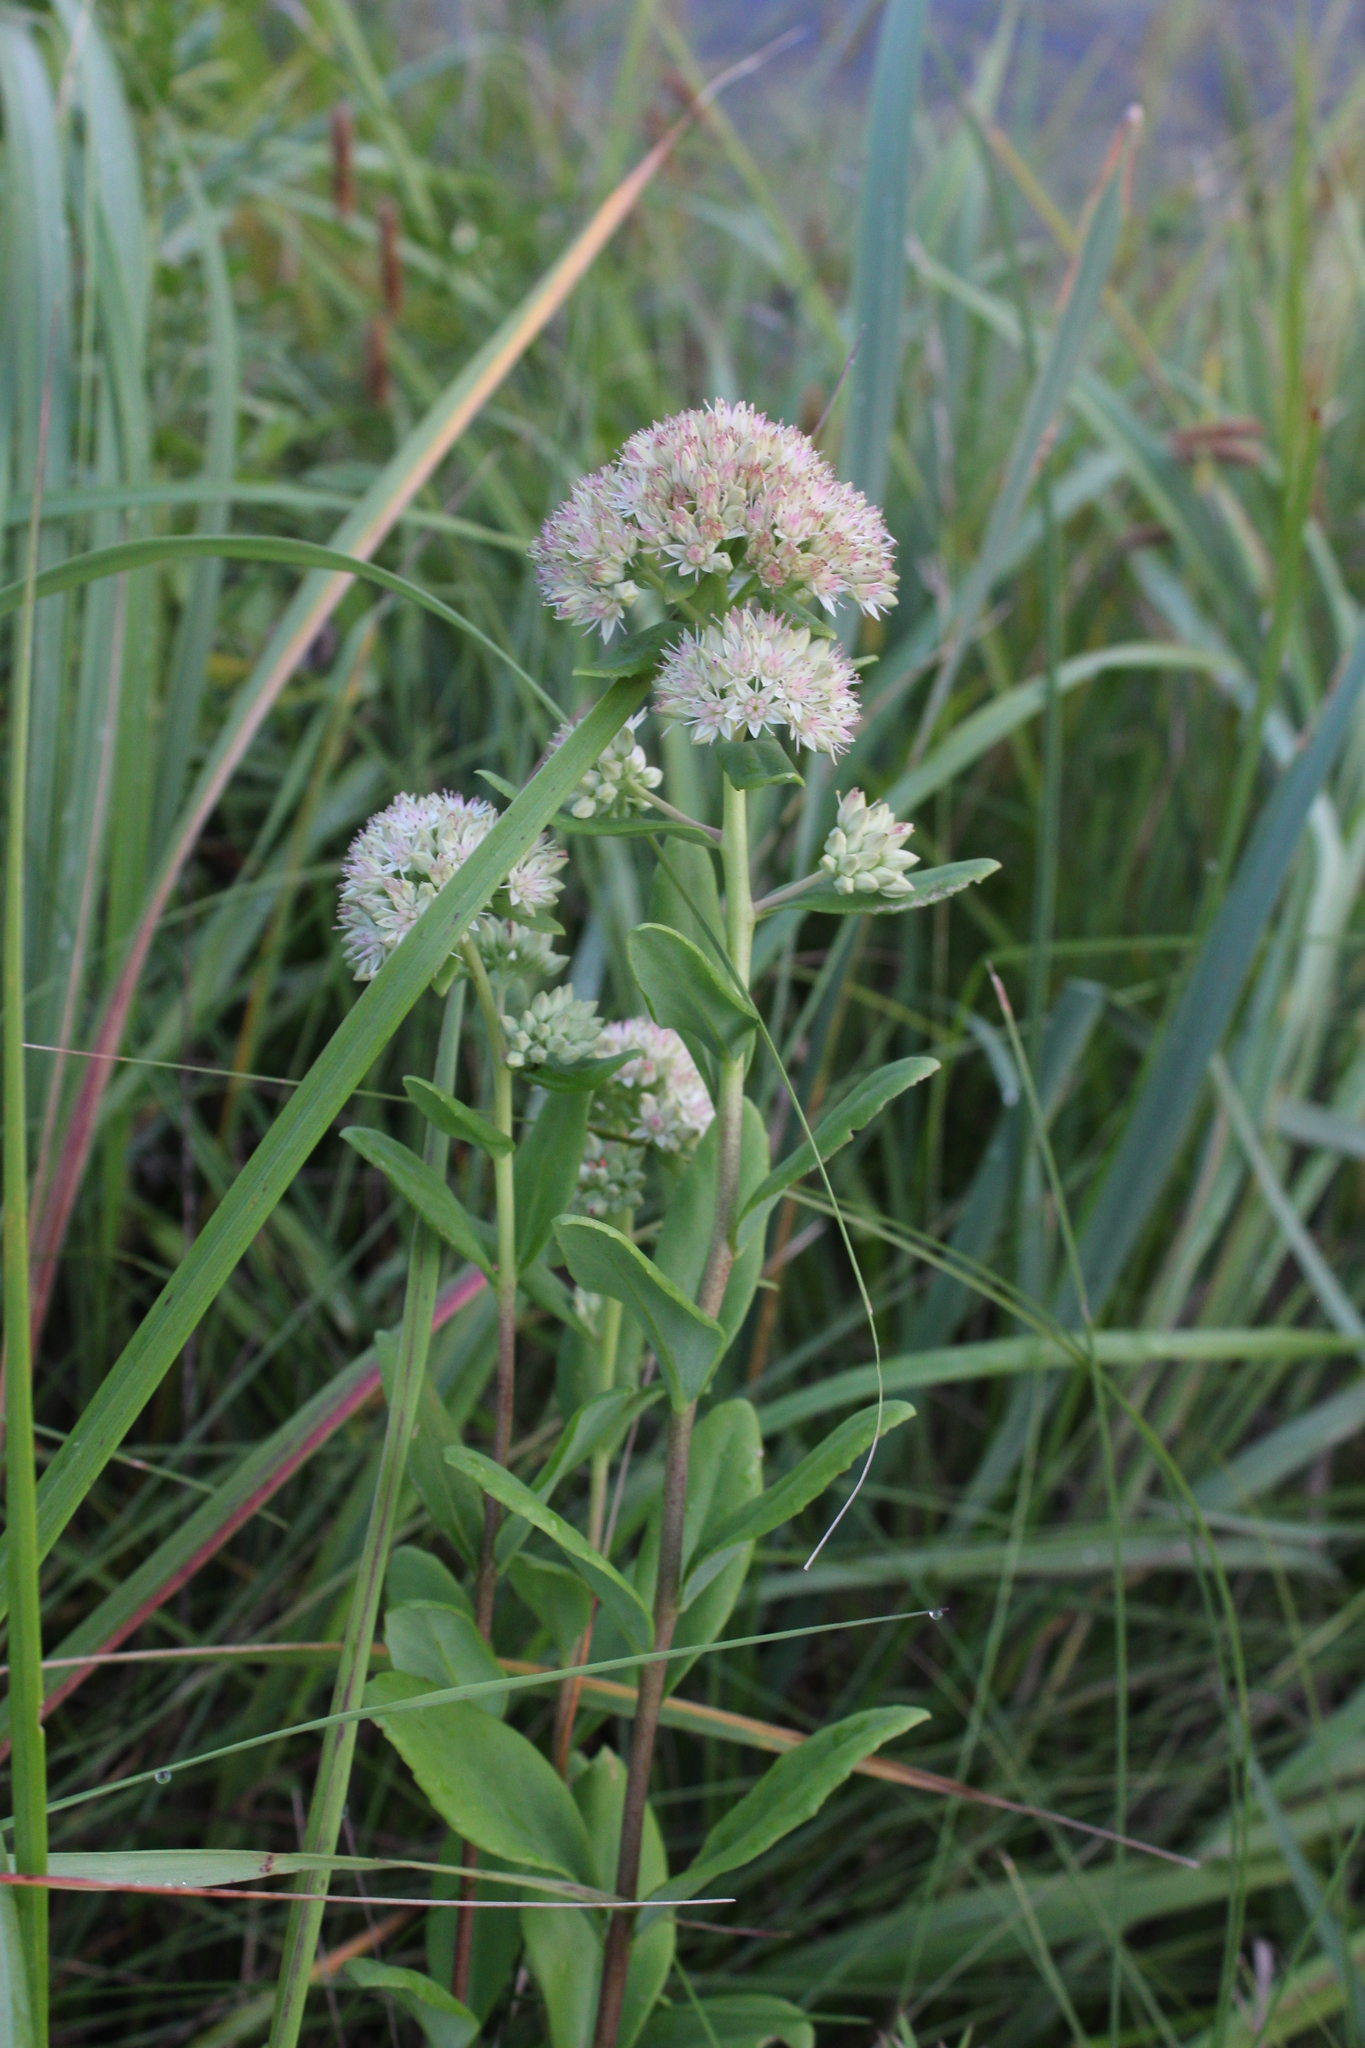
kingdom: Plantae
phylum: Tracheophyta
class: Magnoliopsida
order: Saxifragales
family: Crassulaceae
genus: Hylotelephium
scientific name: Hylotelephium telephium
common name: Live-forever
